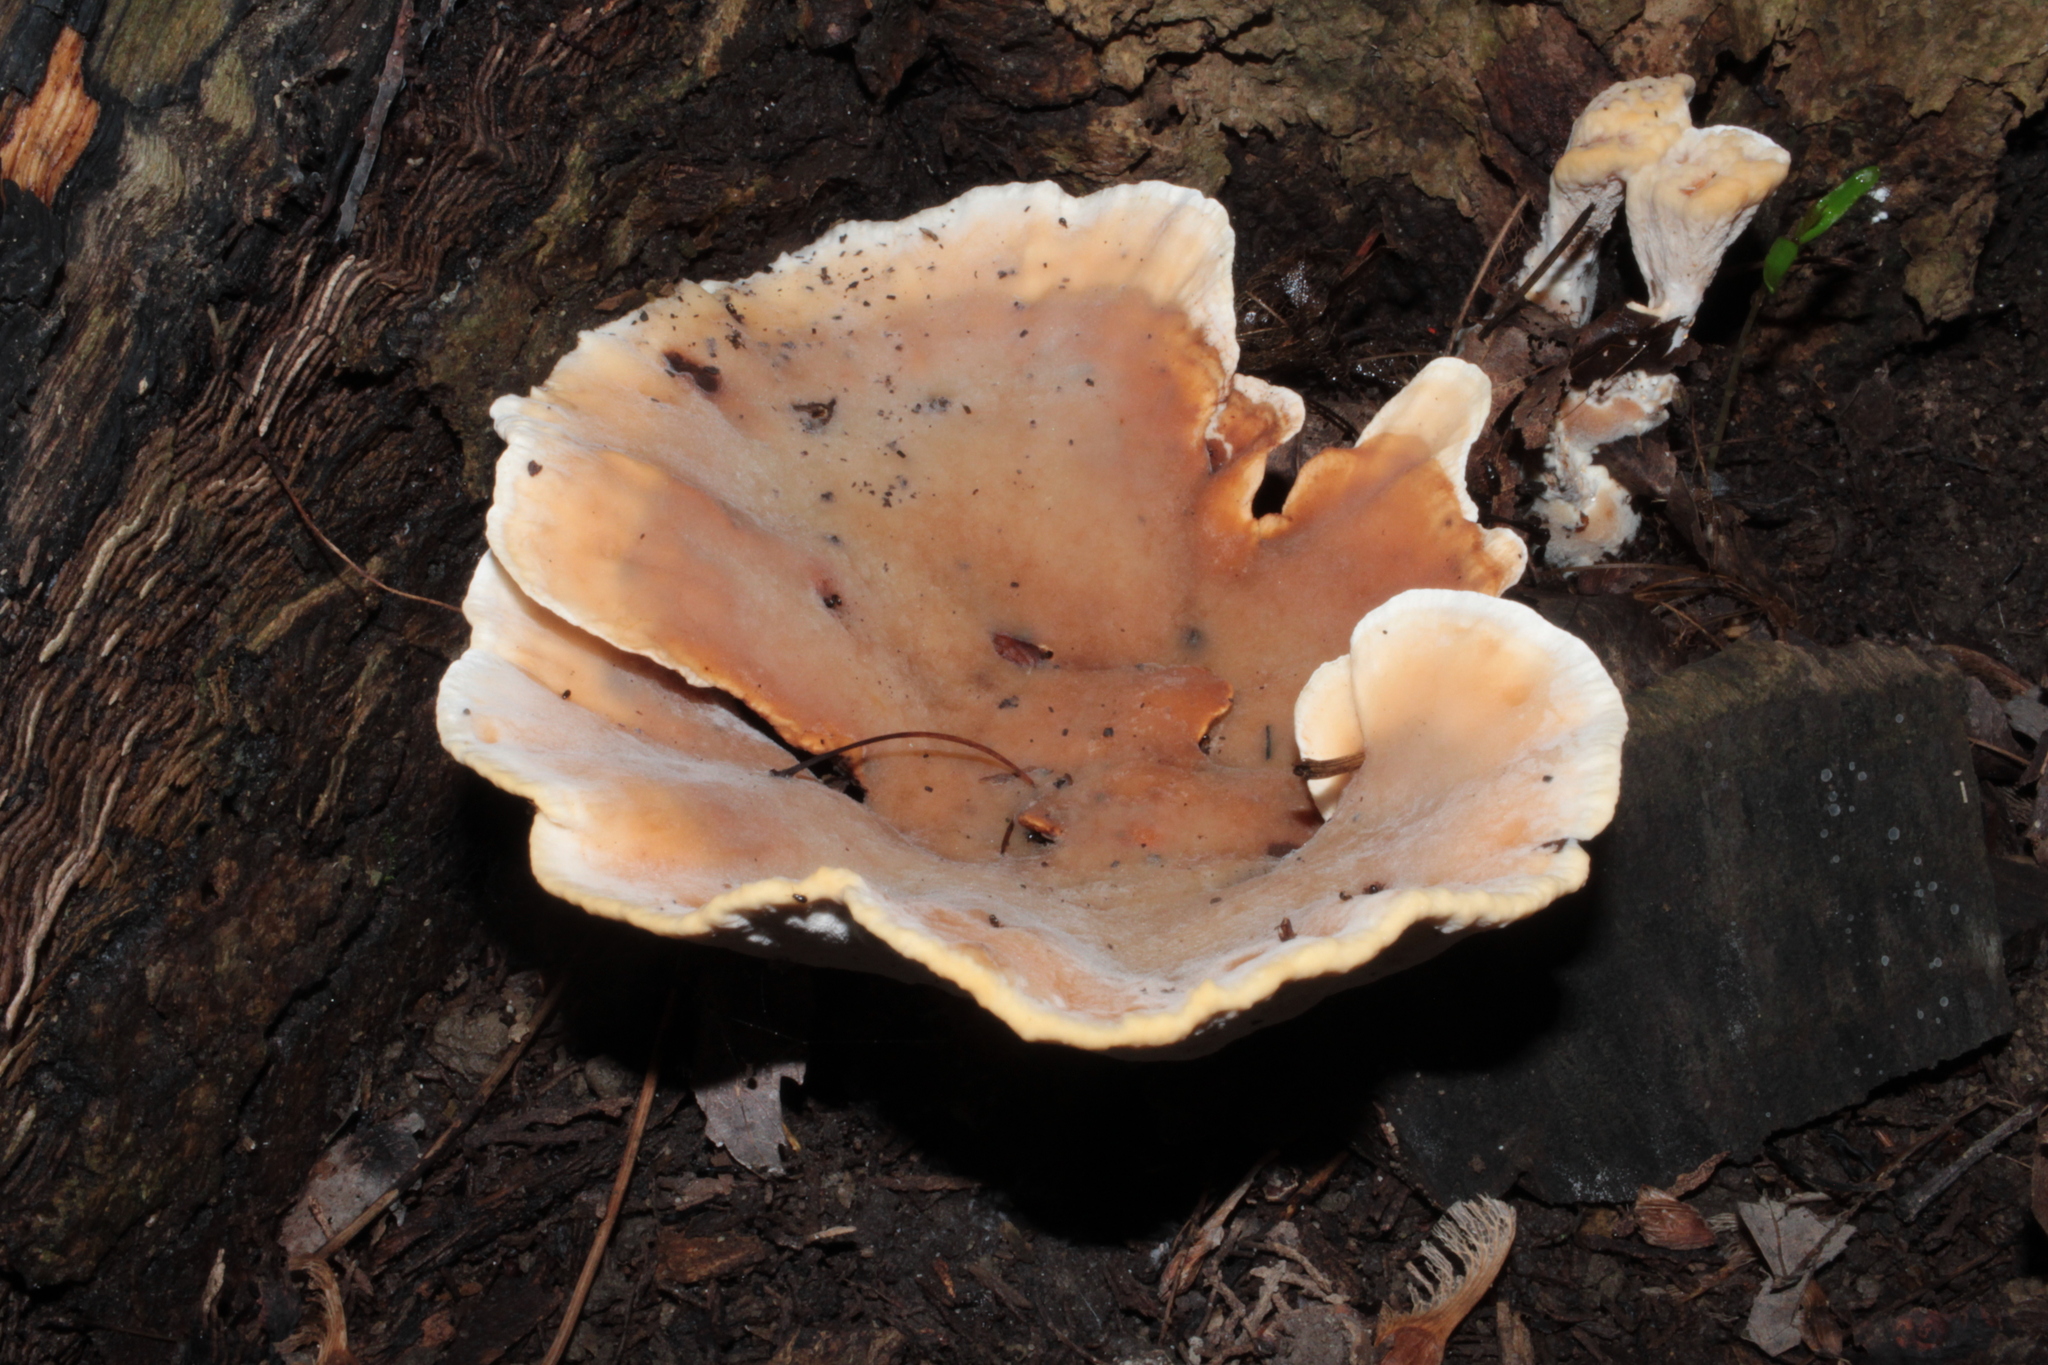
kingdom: Fungi
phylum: Basidiomycota
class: Agaricomycetes
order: Polyporales
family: Podoscyphaceae
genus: Abortiporus
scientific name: Abortiporus biennis
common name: Blushing rosette
